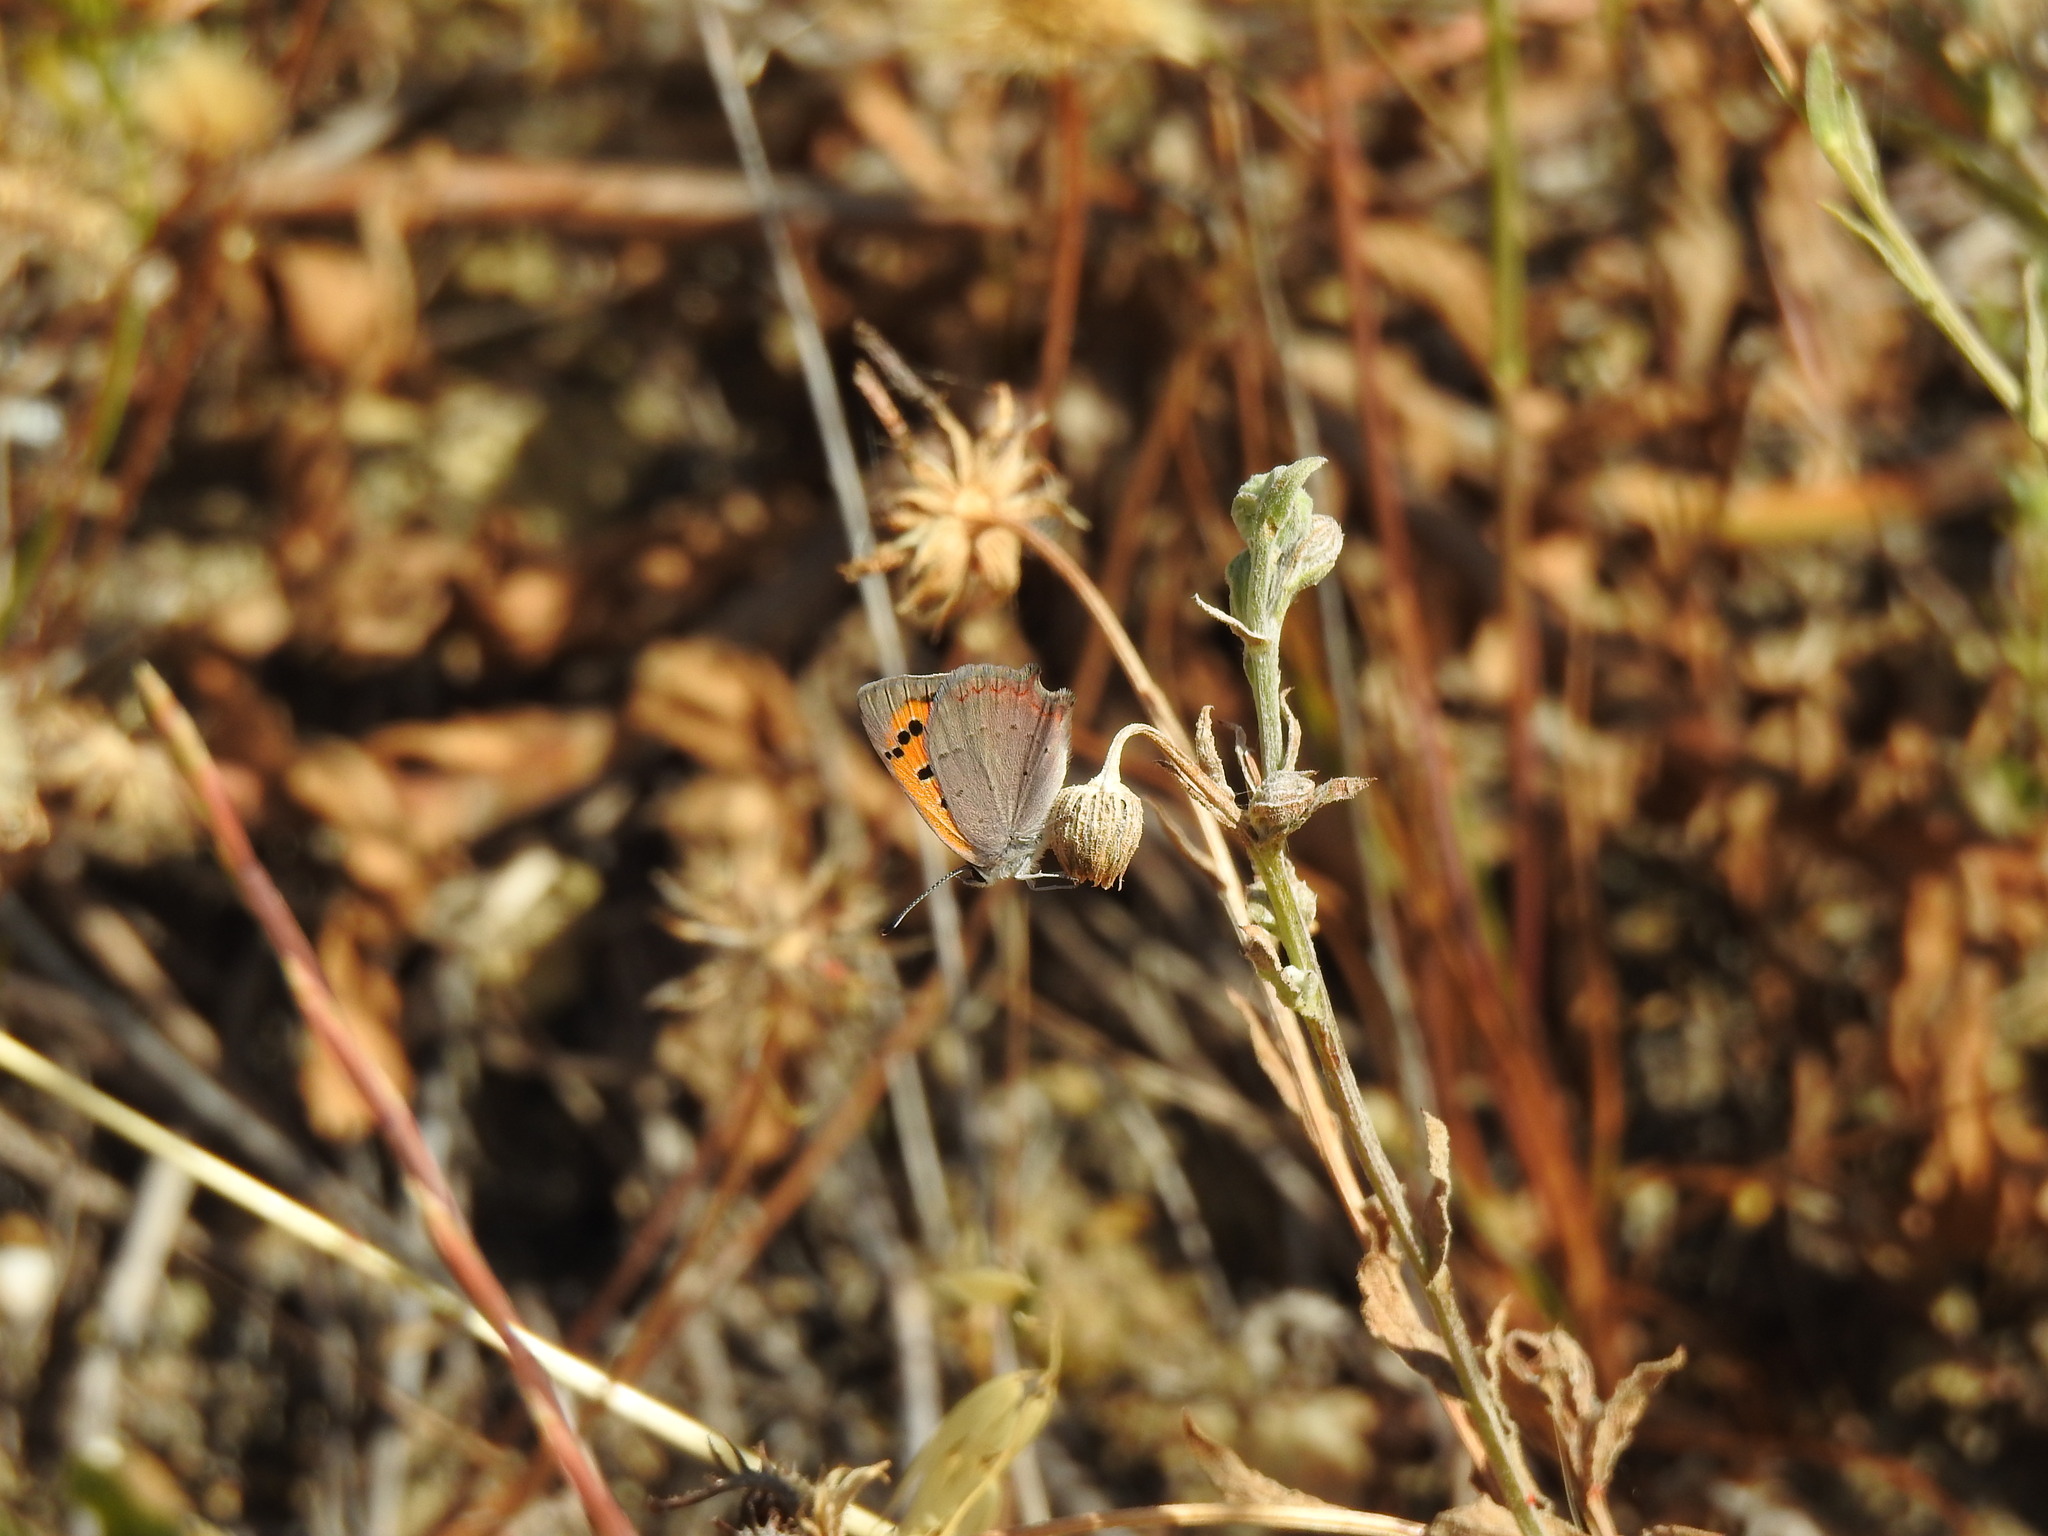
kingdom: Animalia
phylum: Arthropoda
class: Insecta
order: Lepidoptera
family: Lycaenidae
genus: Lycaena
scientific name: Lycaena phlaeas
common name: Small copper
